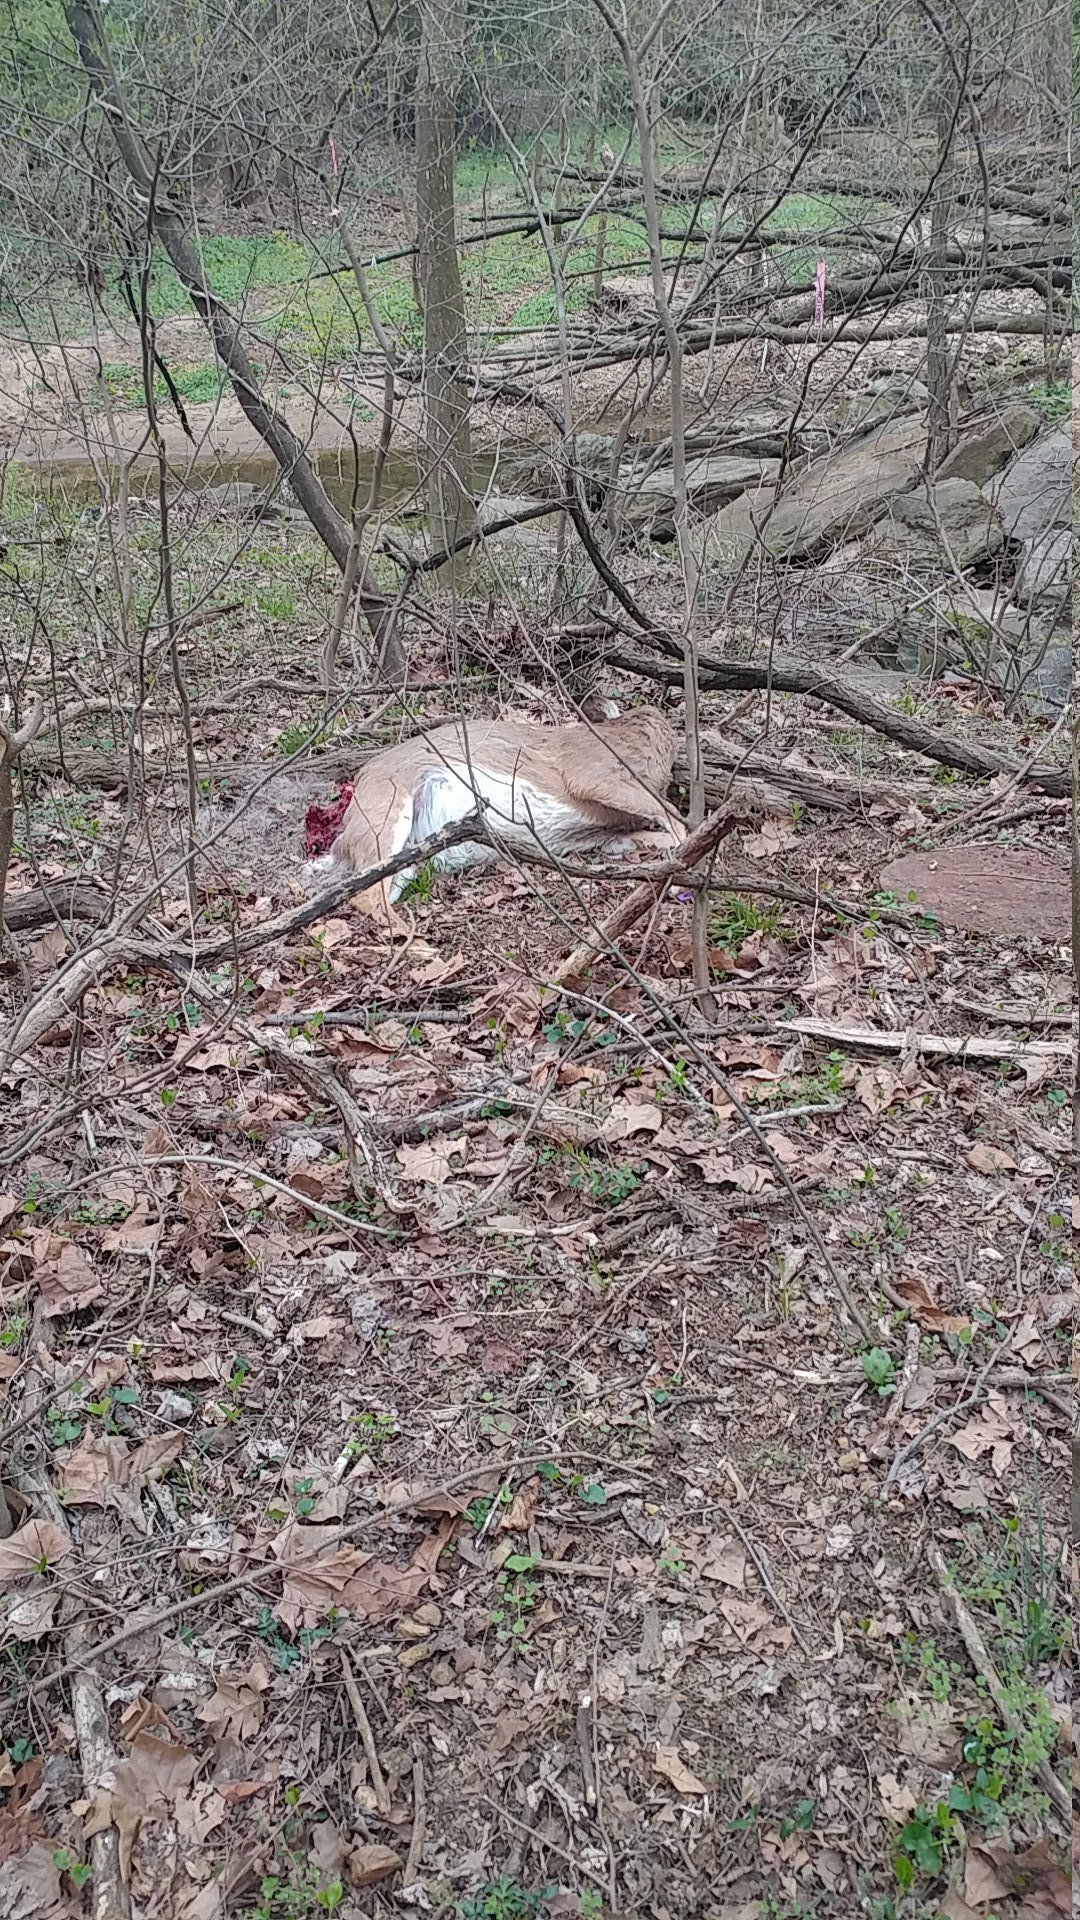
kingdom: Animalia
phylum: Chordata
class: Mammalia
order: Artiodactyla
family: Cervidae
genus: Odocoileus
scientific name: Odocoileus virginianus
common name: White-tailed deer
